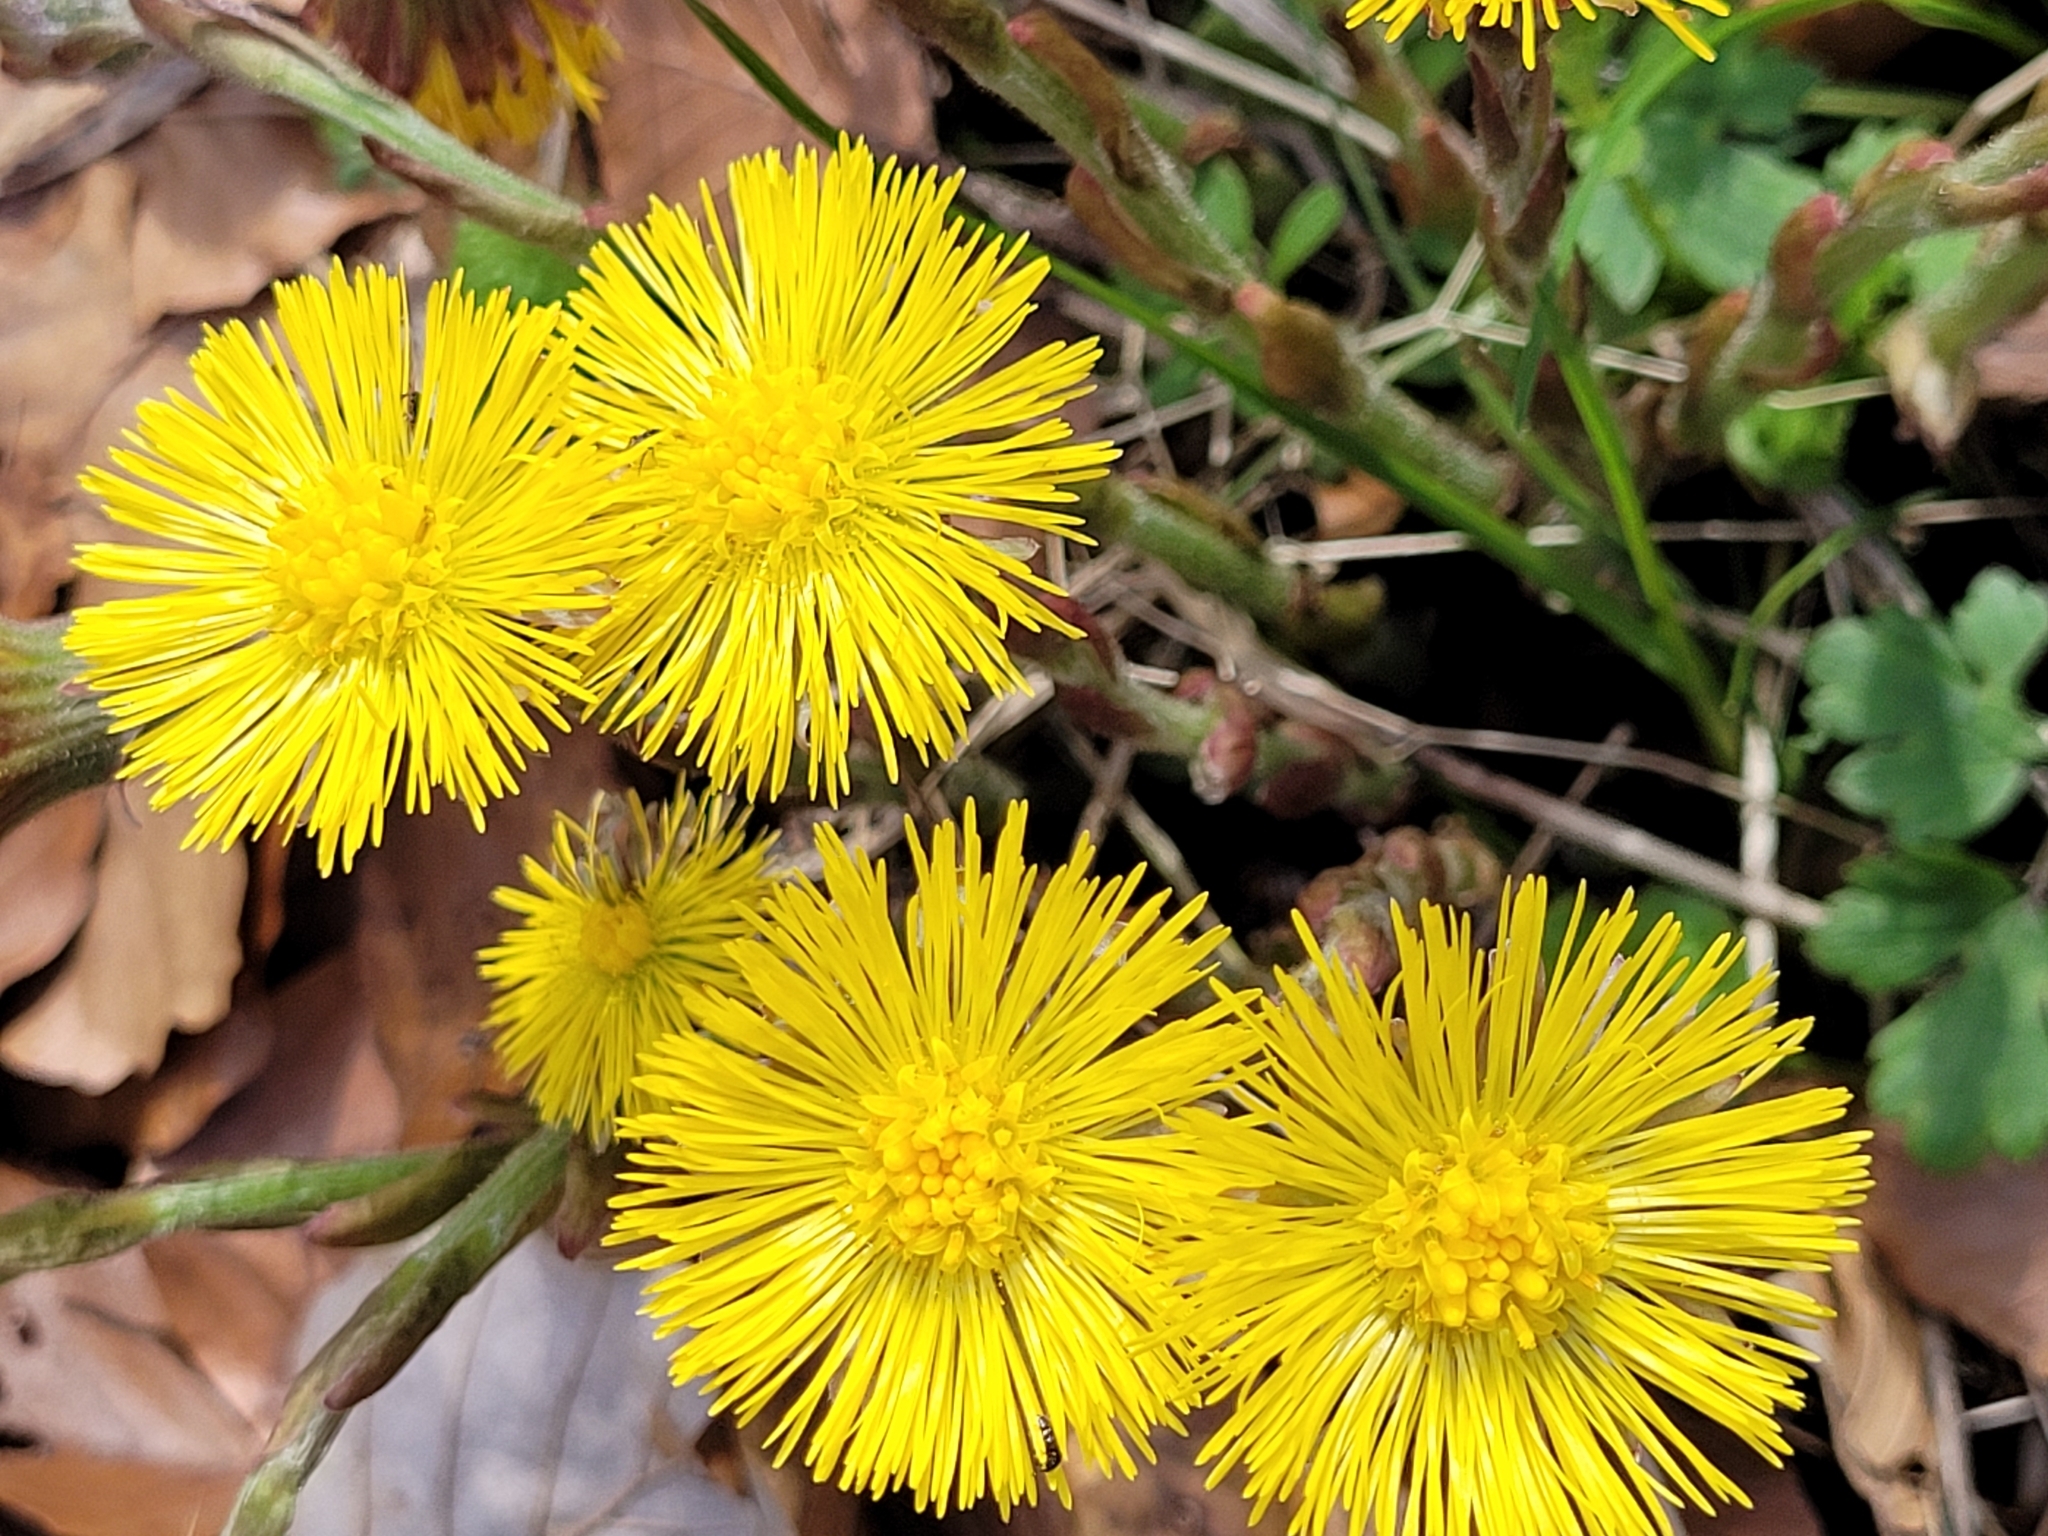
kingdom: Plantae
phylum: Tracheophyta
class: Magnoliopsida
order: Asterales
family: Asteraceae
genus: Tussilago
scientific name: Tussilago farfara
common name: Coltsfoot
